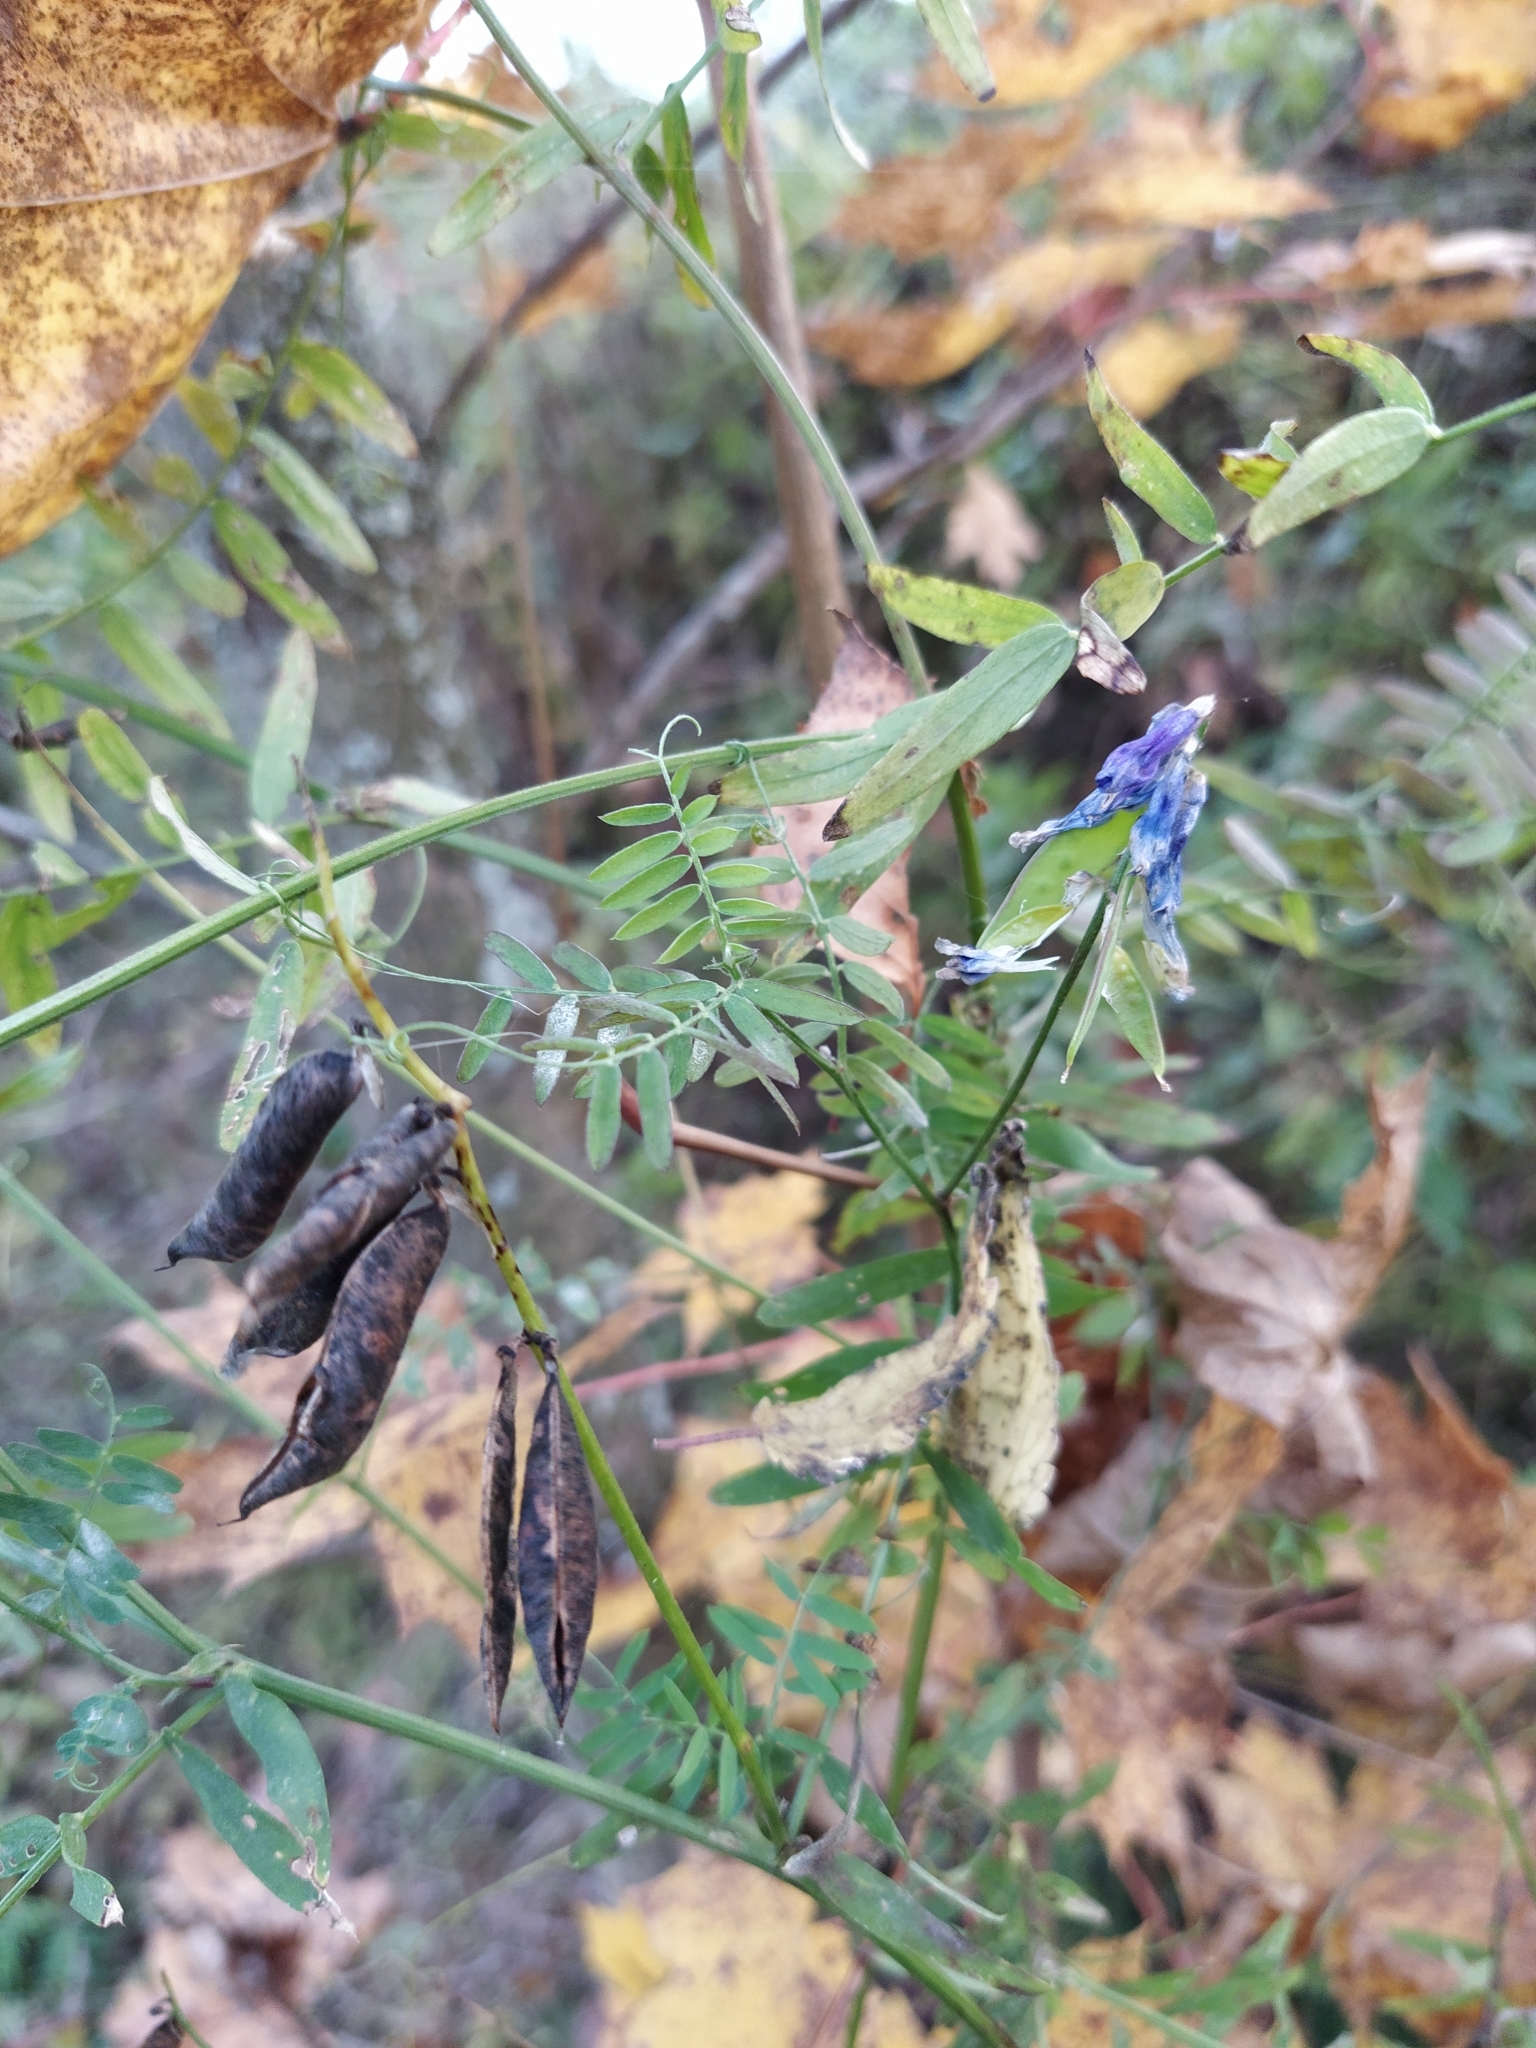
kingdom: Plantae
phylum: Tracheophyta
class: Magnoliopsida
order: Fabales
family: Fabaceae
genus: Vicia
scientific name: Vicia cracca
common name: Bird vetch
